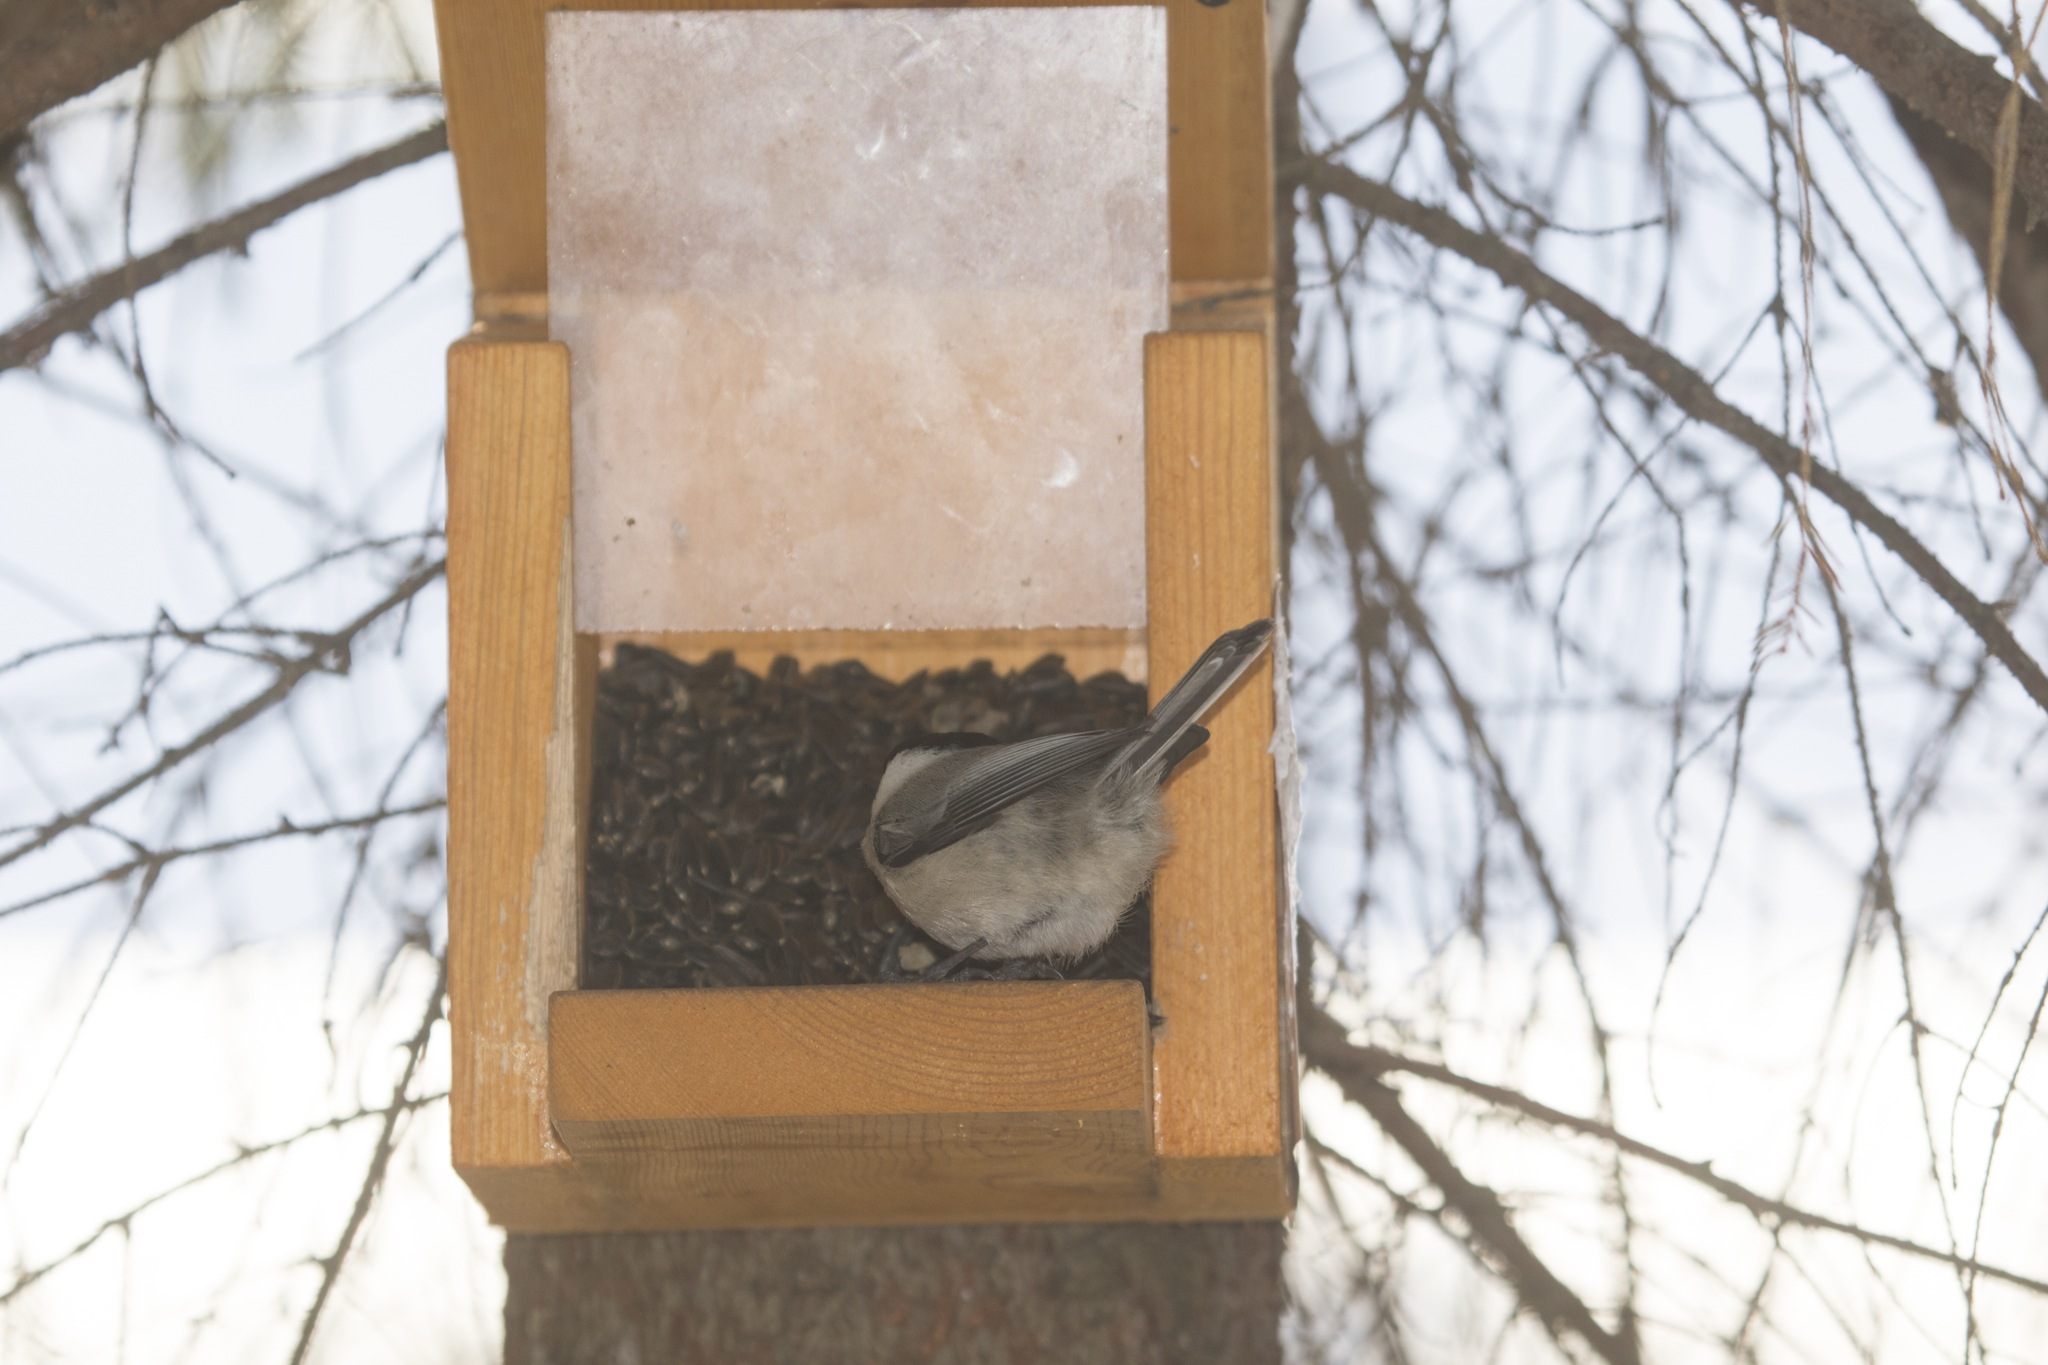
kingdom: Animalia
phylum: Chordata
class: Aves
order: Passeriformes
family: Paridae
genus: Poecile
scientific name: Poecile montanus
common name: Willow tit
